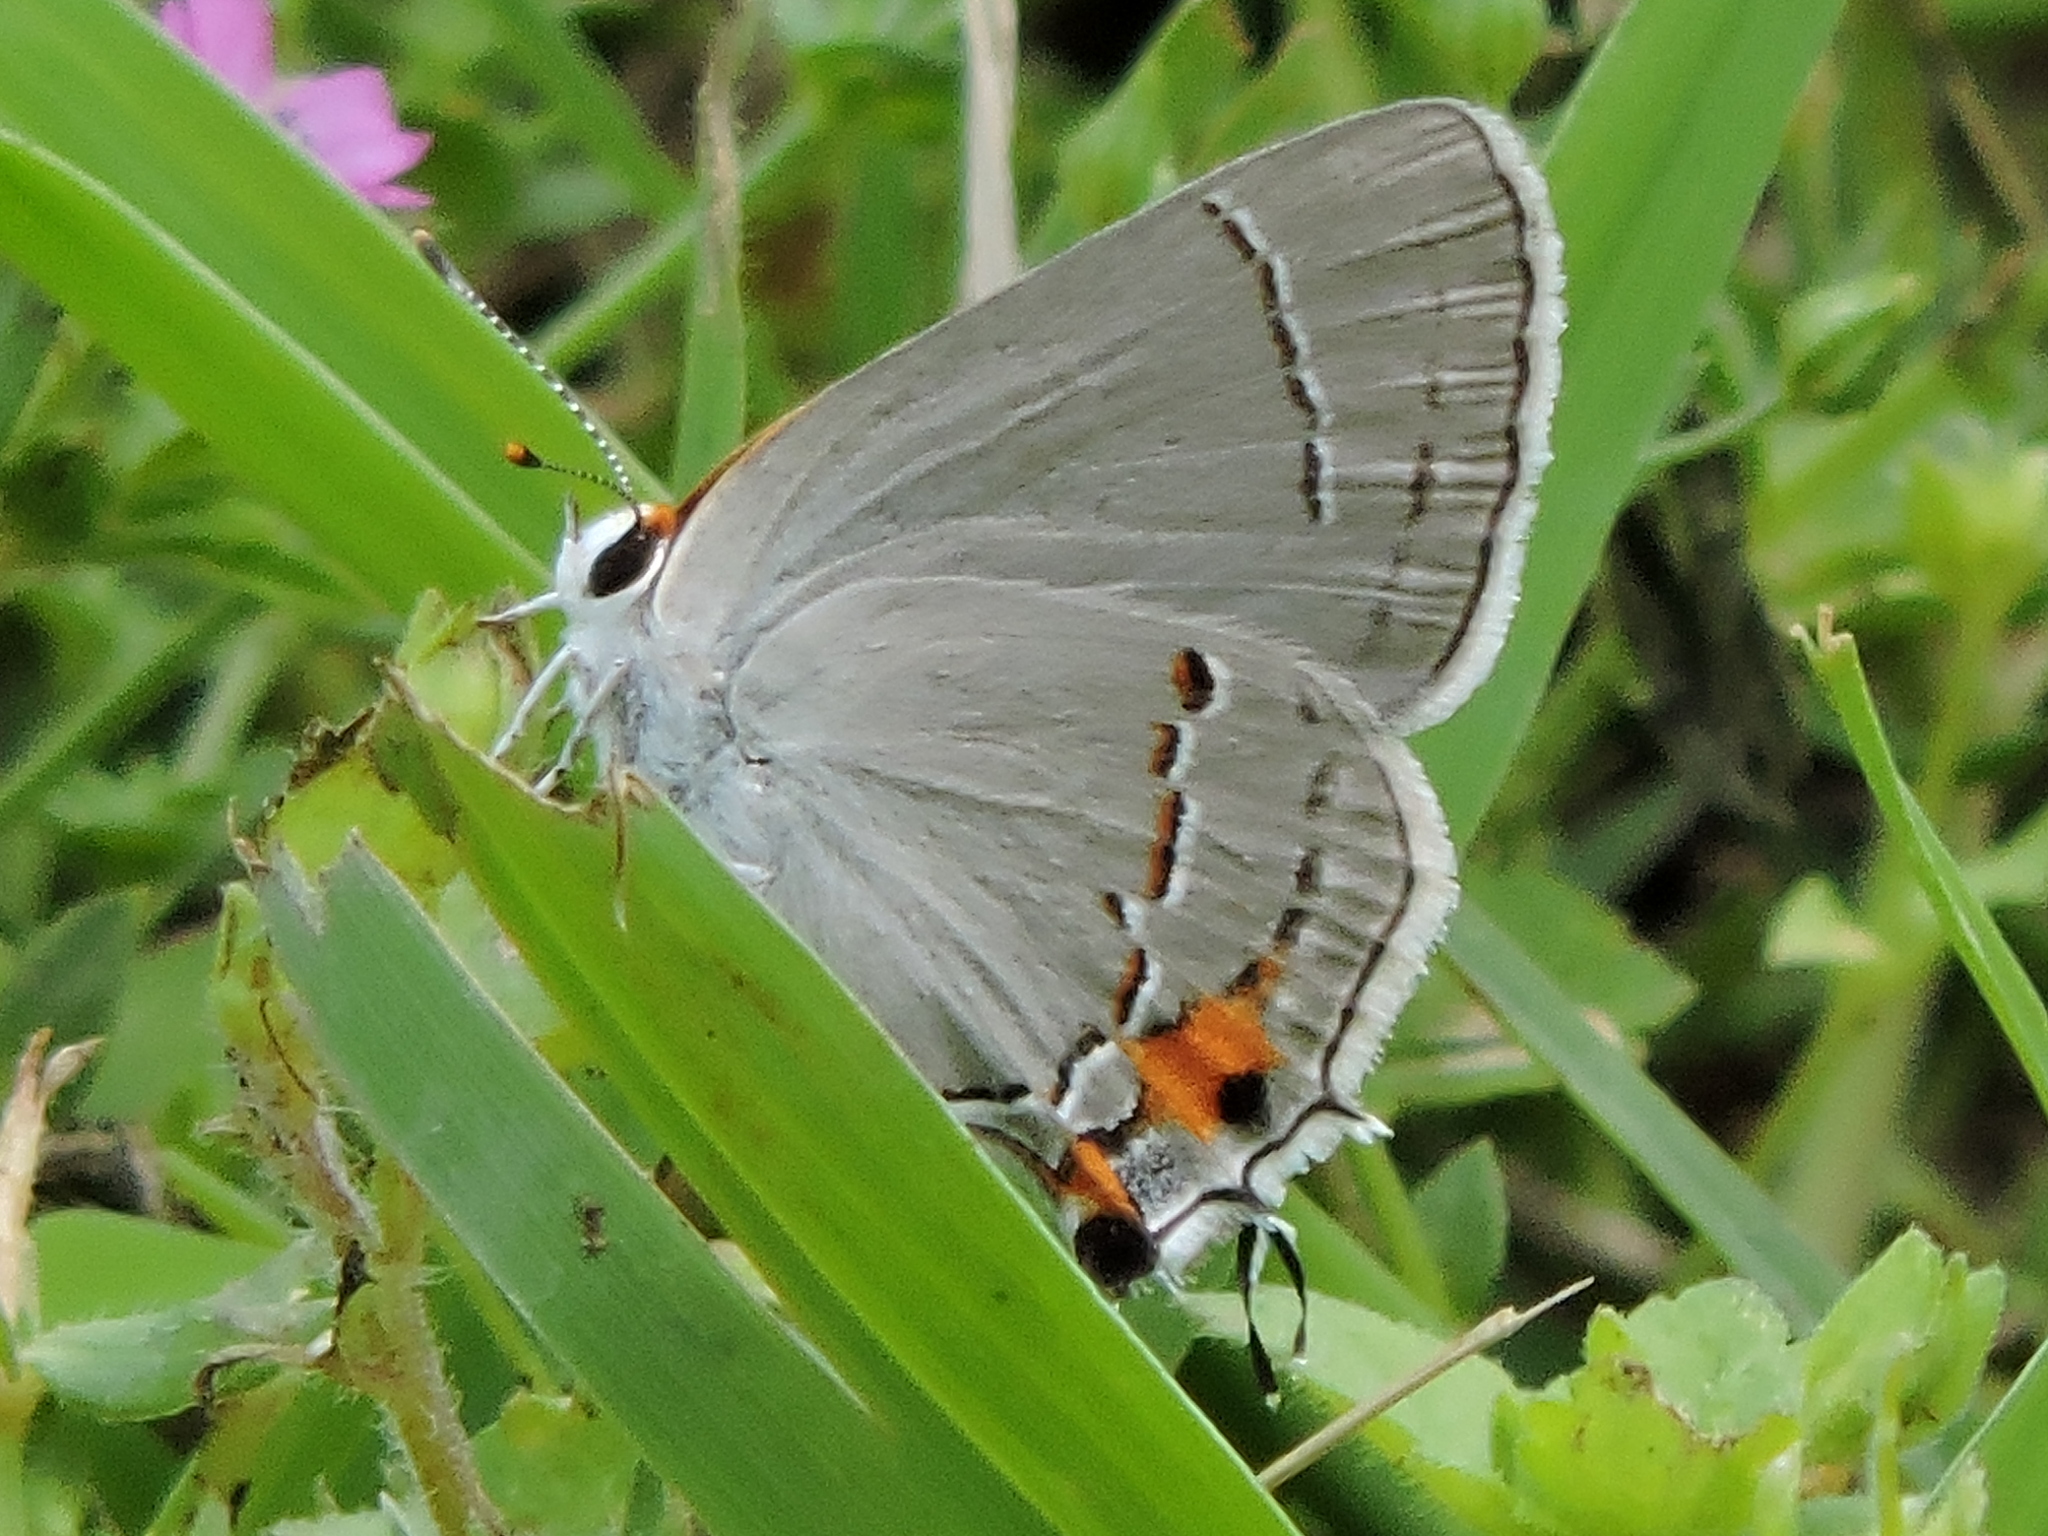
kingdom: Animalia
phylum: Arthropoda
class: Insecta
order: Lepidoptera
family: Lycaenidae
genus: Strymon
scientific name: Strymon melinus
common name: Gray hairstreak
